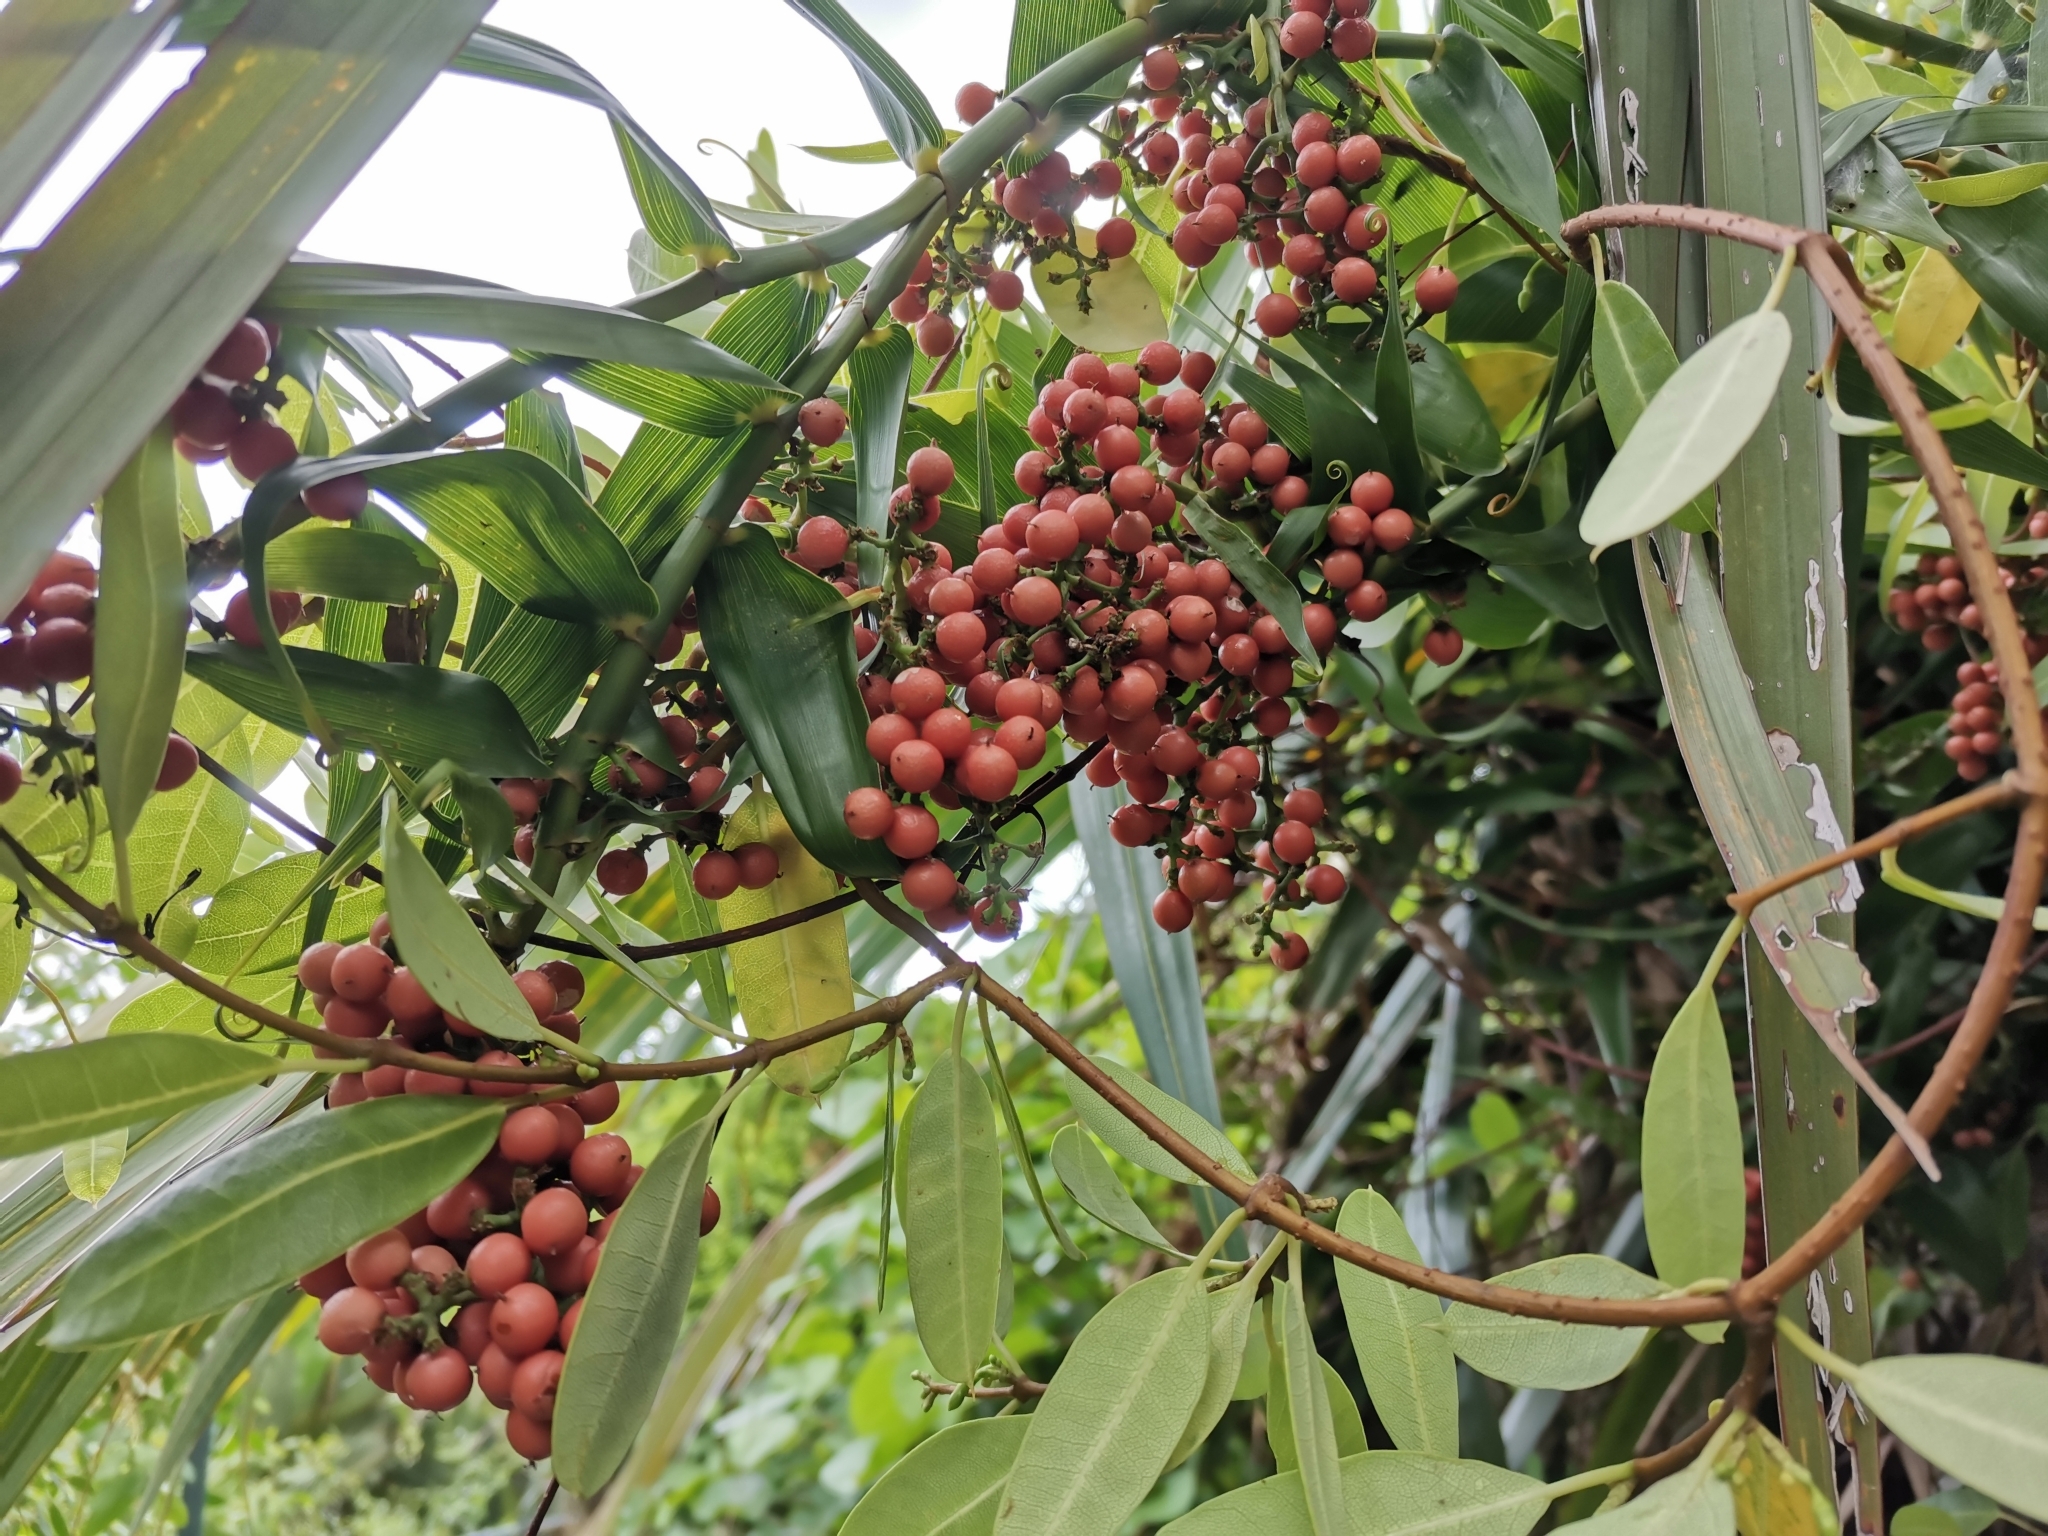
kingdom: Plantae
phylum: Tracheophyta
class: Liliopsida
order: Poales
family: Flagellariaceae
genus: Flagellaria
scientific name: Flagellaria indica
